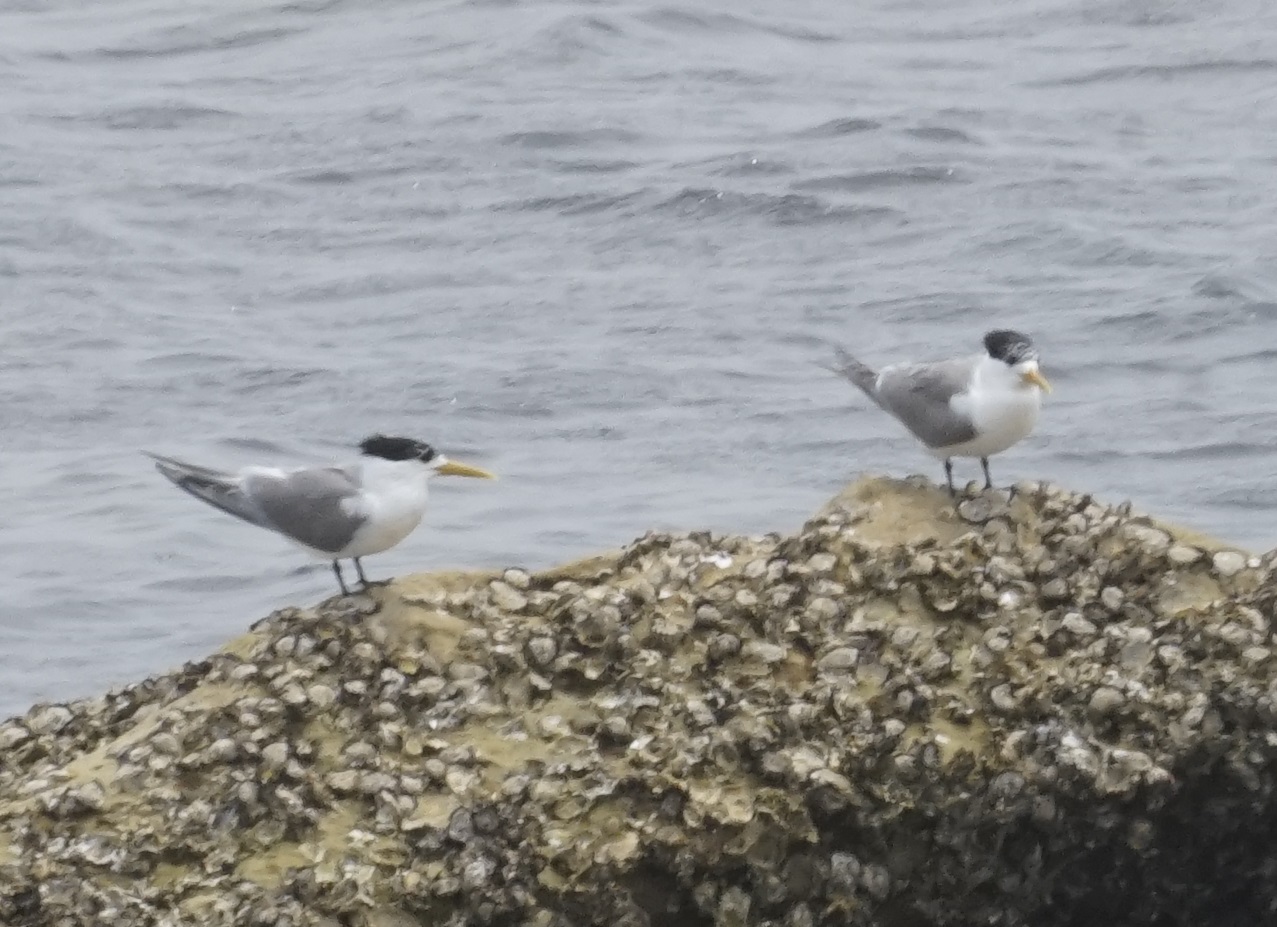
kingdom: Animalia
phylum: Chordata
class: Aves
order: Charadriiformes
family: Laridae
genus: Thalasseus
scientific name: Thalasseus bergii
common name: Greater crested tern
